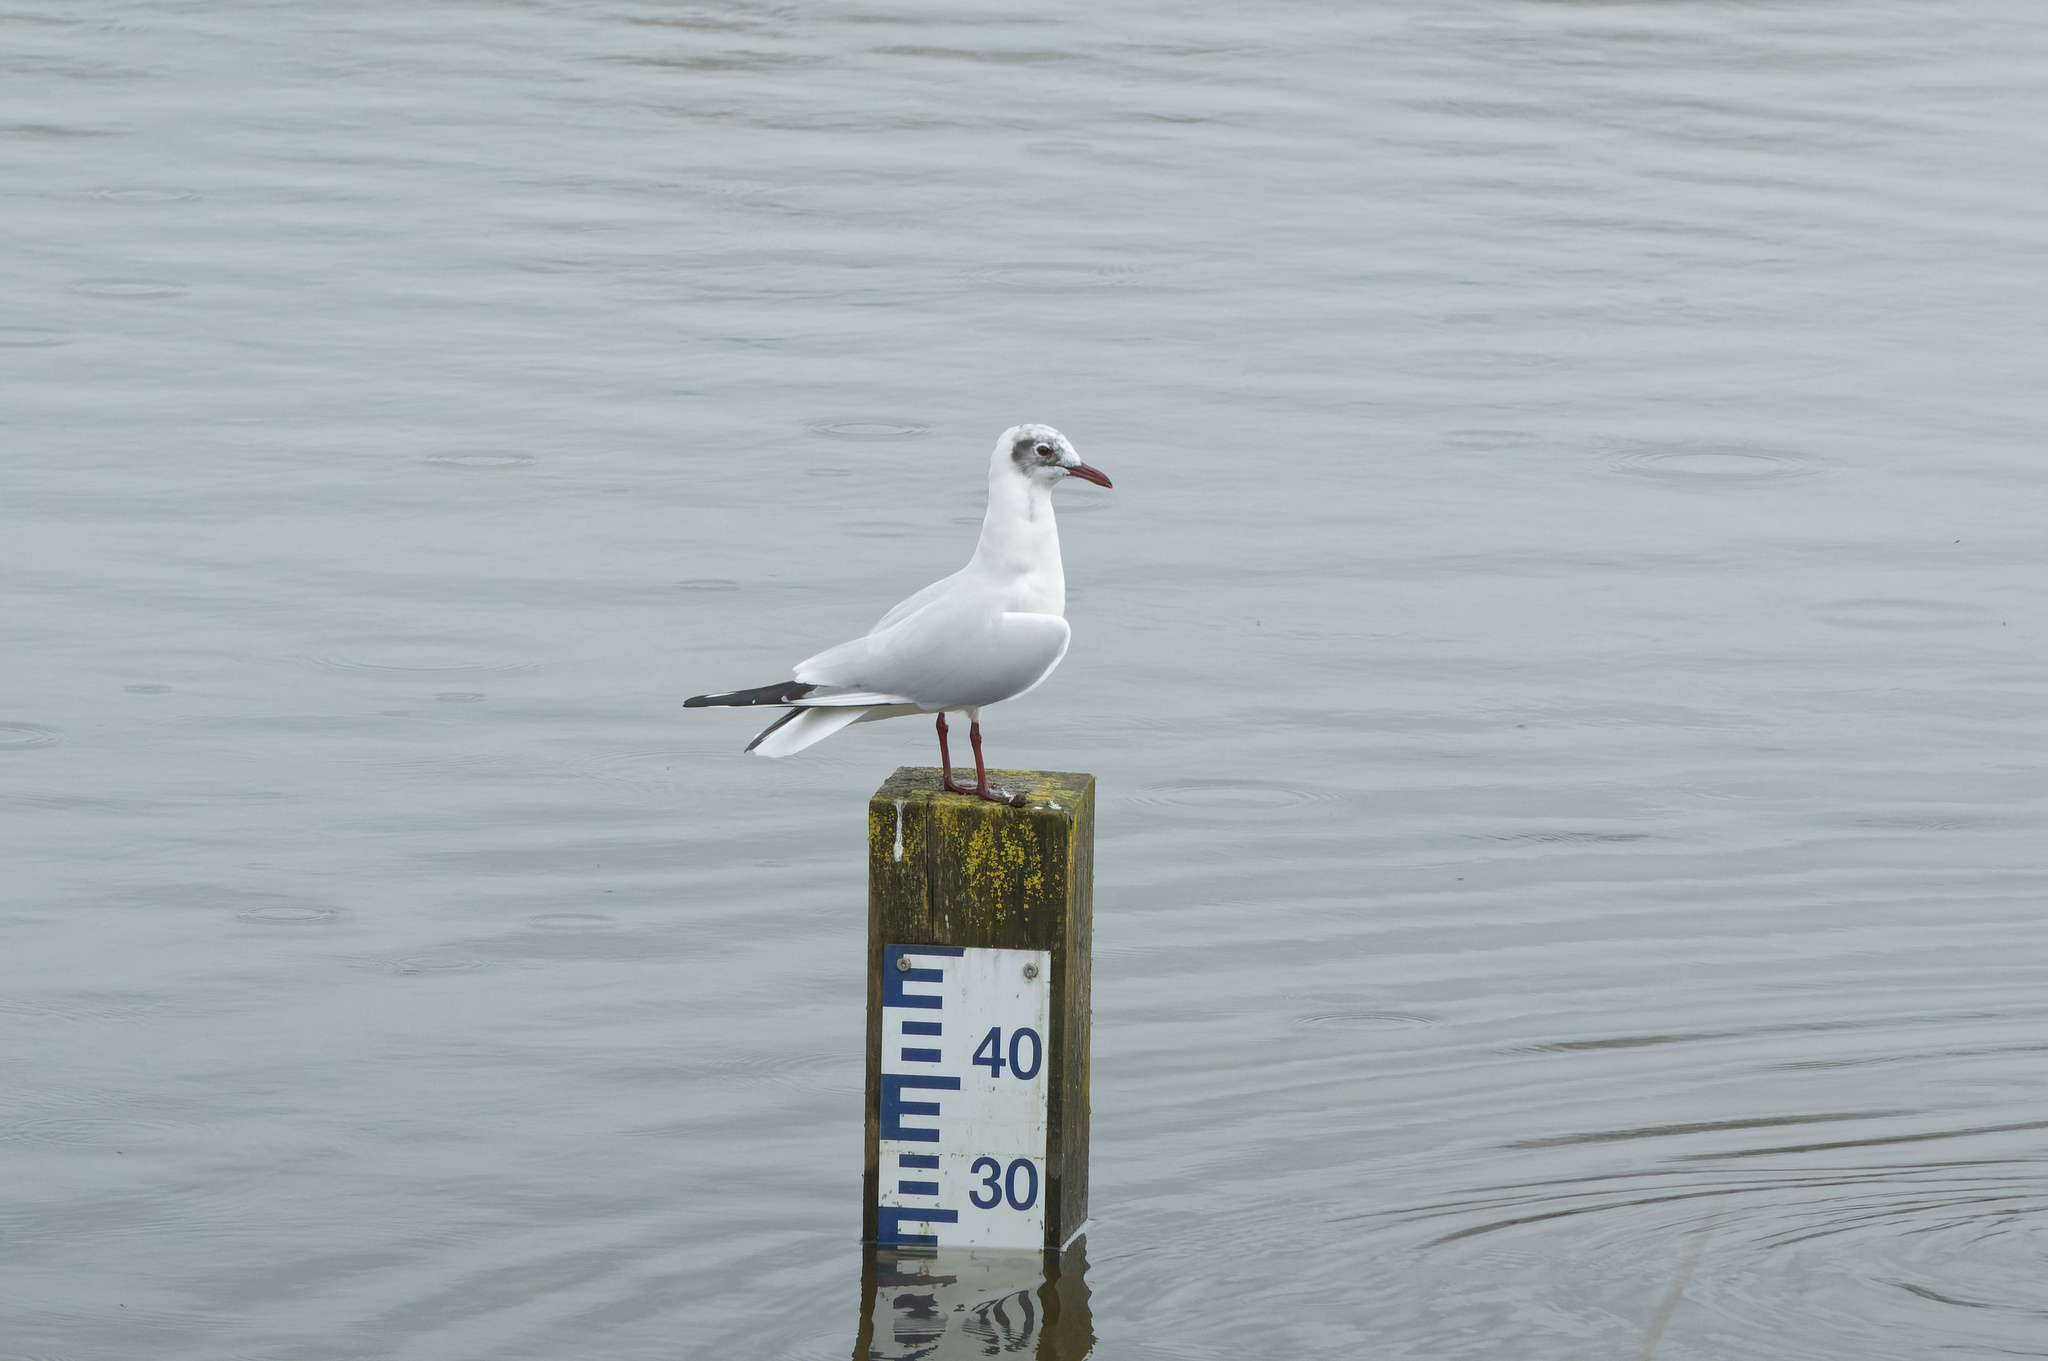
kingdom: Animalia
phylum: Chordata
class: Aves
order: Charadriiformes
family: Laridae
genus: Chroicocephalus
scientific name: Chroicocephalus ridibundus
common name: Black-headed gull
